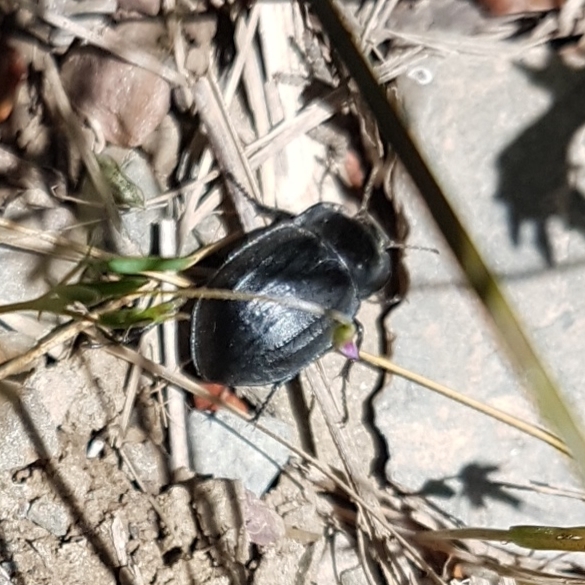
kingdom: Animalia
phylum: Arthropoda
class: Insecta
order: Coleoptera
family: Tenebrionidae
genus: Alphasida
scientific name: Alphasida depressa
